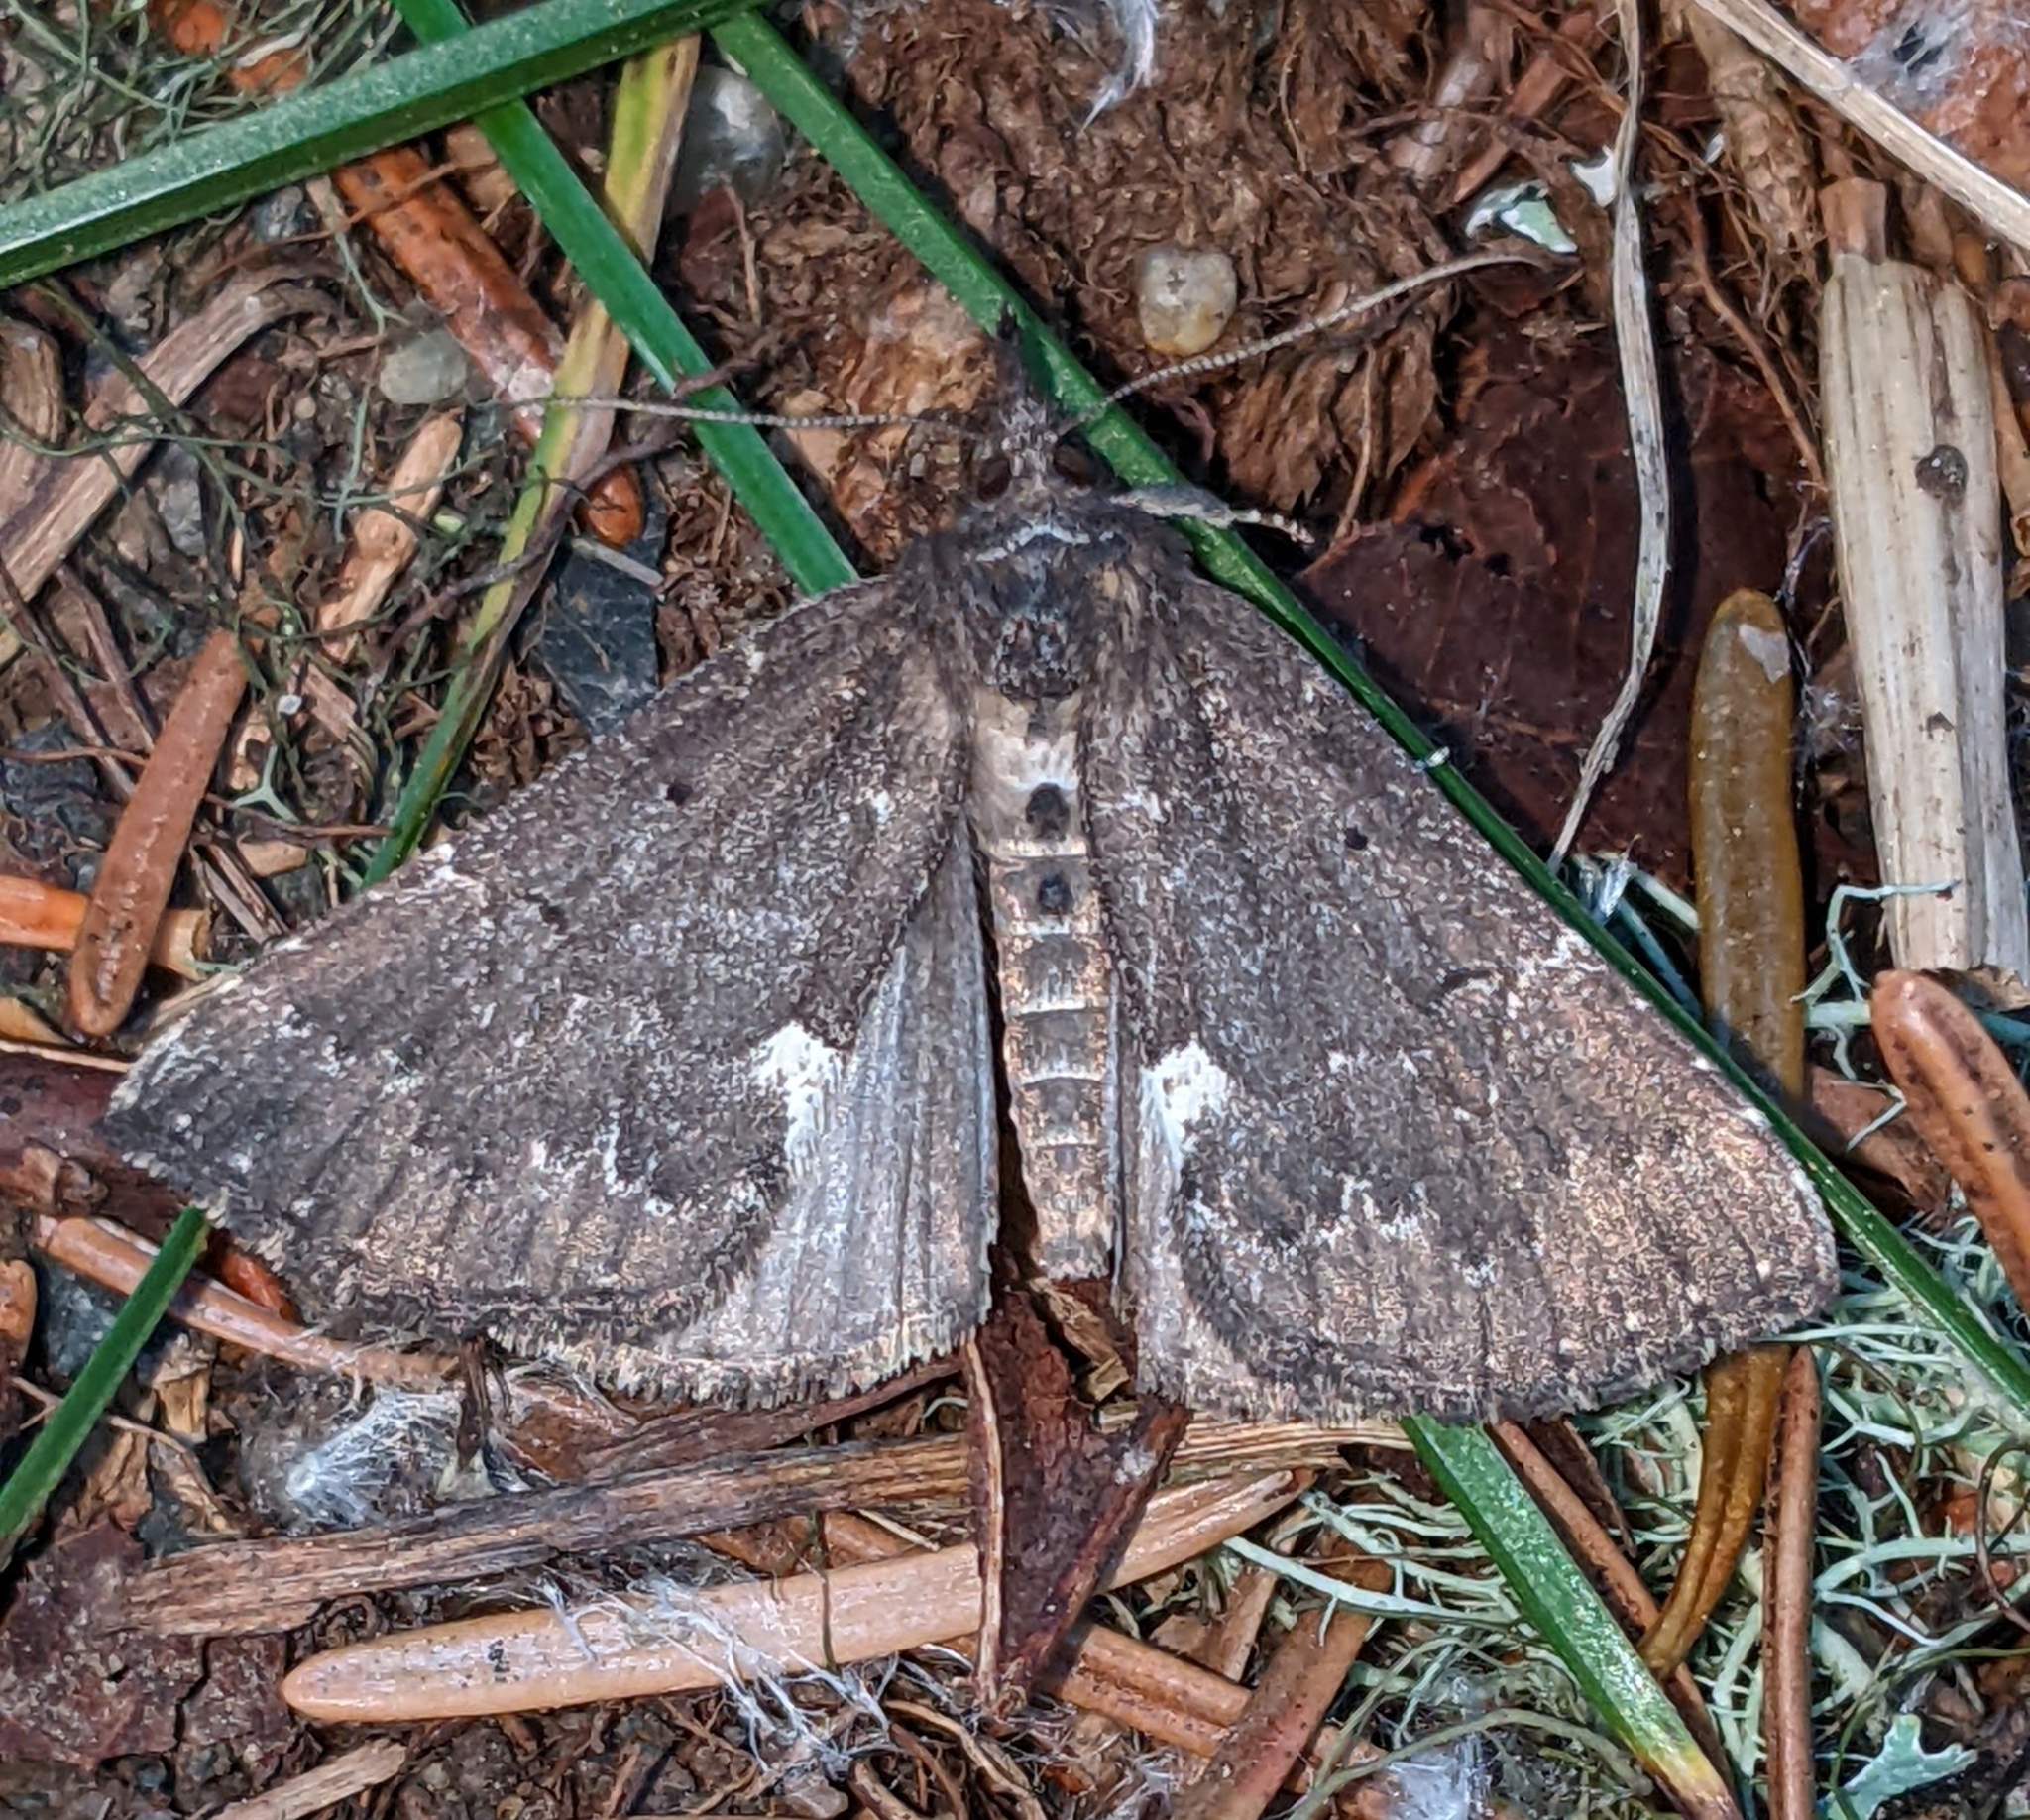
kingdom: Animalia
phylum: Arthropoda
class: Insecta
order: Lepidoptera
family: Erebidae
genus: Hypena
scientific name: Hypena bijugalis
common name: Dimorphic bomolocha moth
